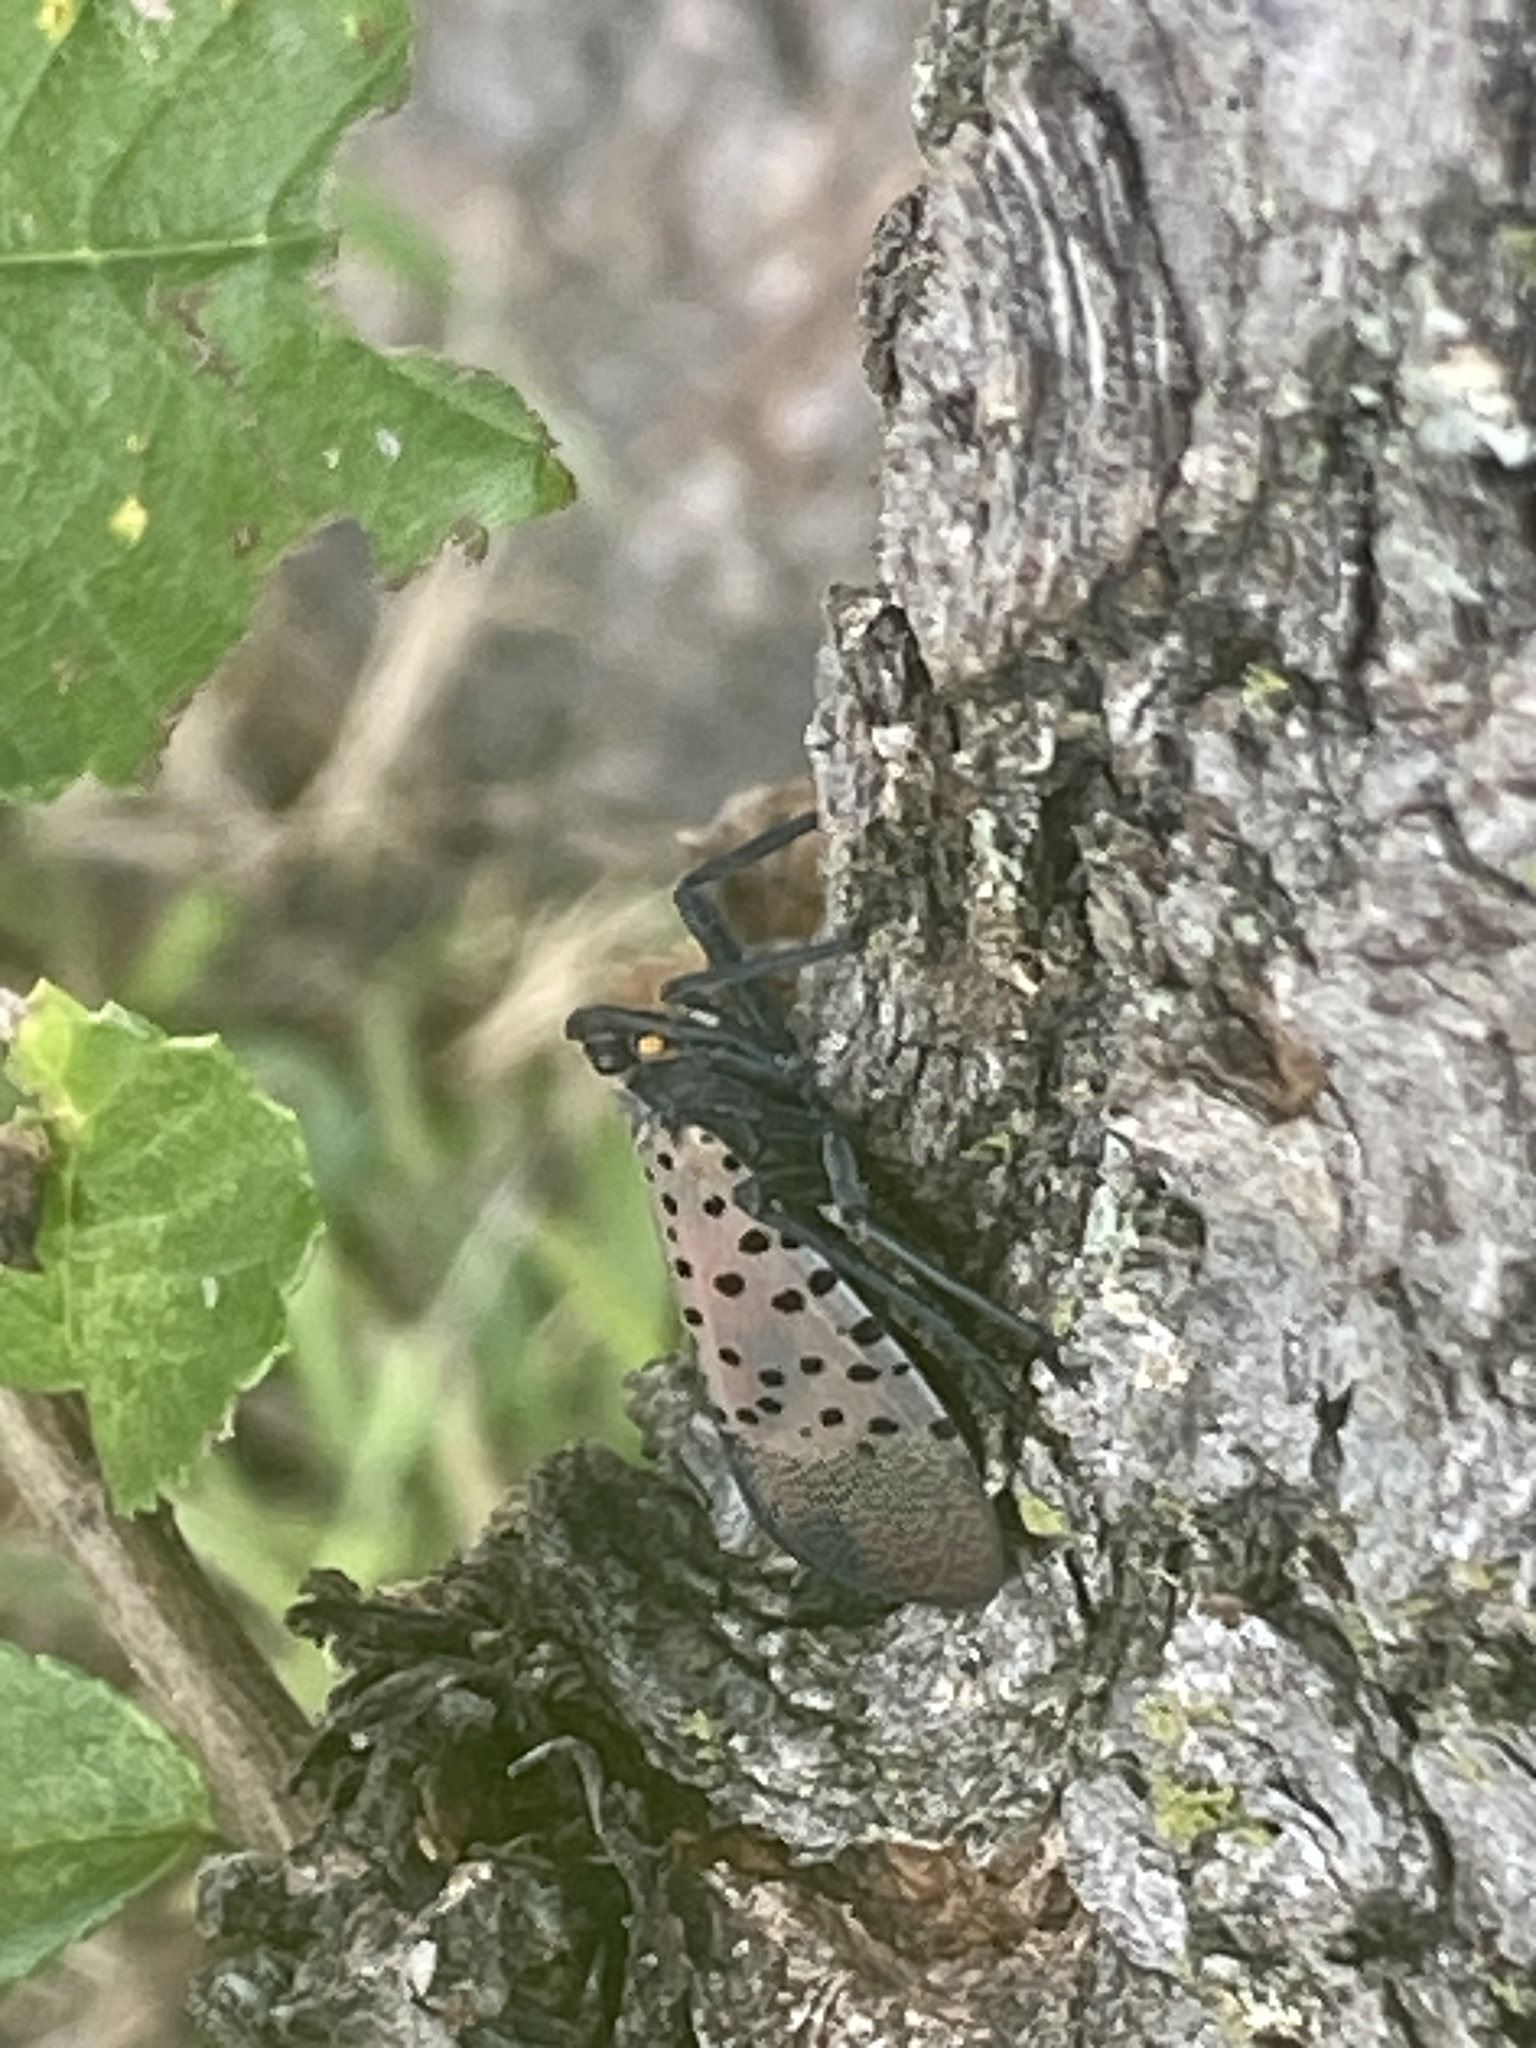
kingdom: Animalia
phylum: Arthropoda
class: Insecta
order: Hemiptera
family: Fulgoridae
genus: Lycorma
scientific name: Lycorma delicatula
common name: Spotted lanternfly
